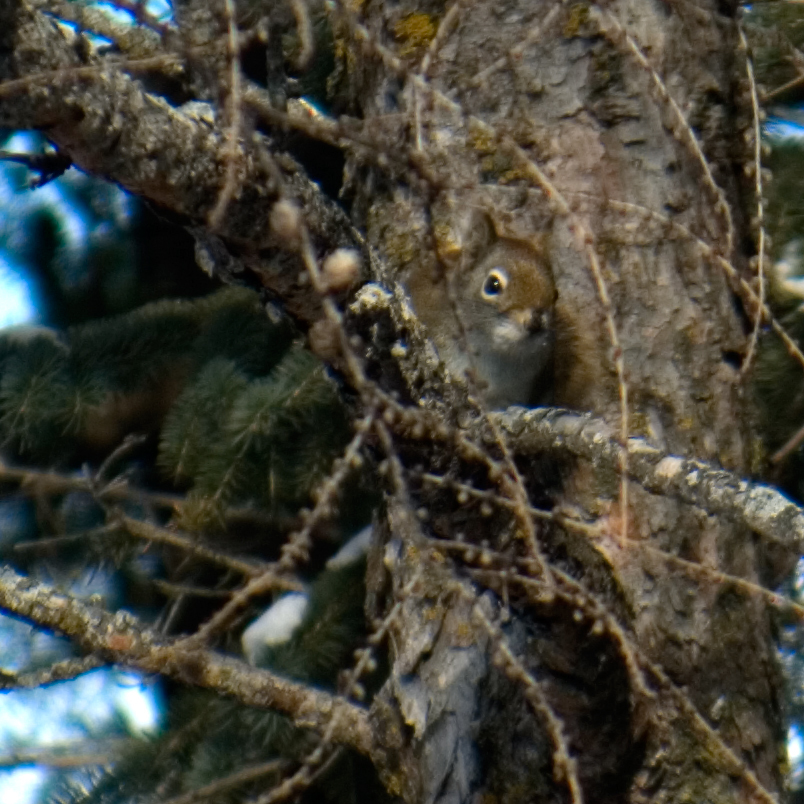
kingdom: Animalia
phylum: Chordata
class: Mammalia
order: Rodentia
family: Sciuridae
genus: Tamiasciurus
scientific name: Tamiasciurus hudsonicus
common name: Red squirrel
